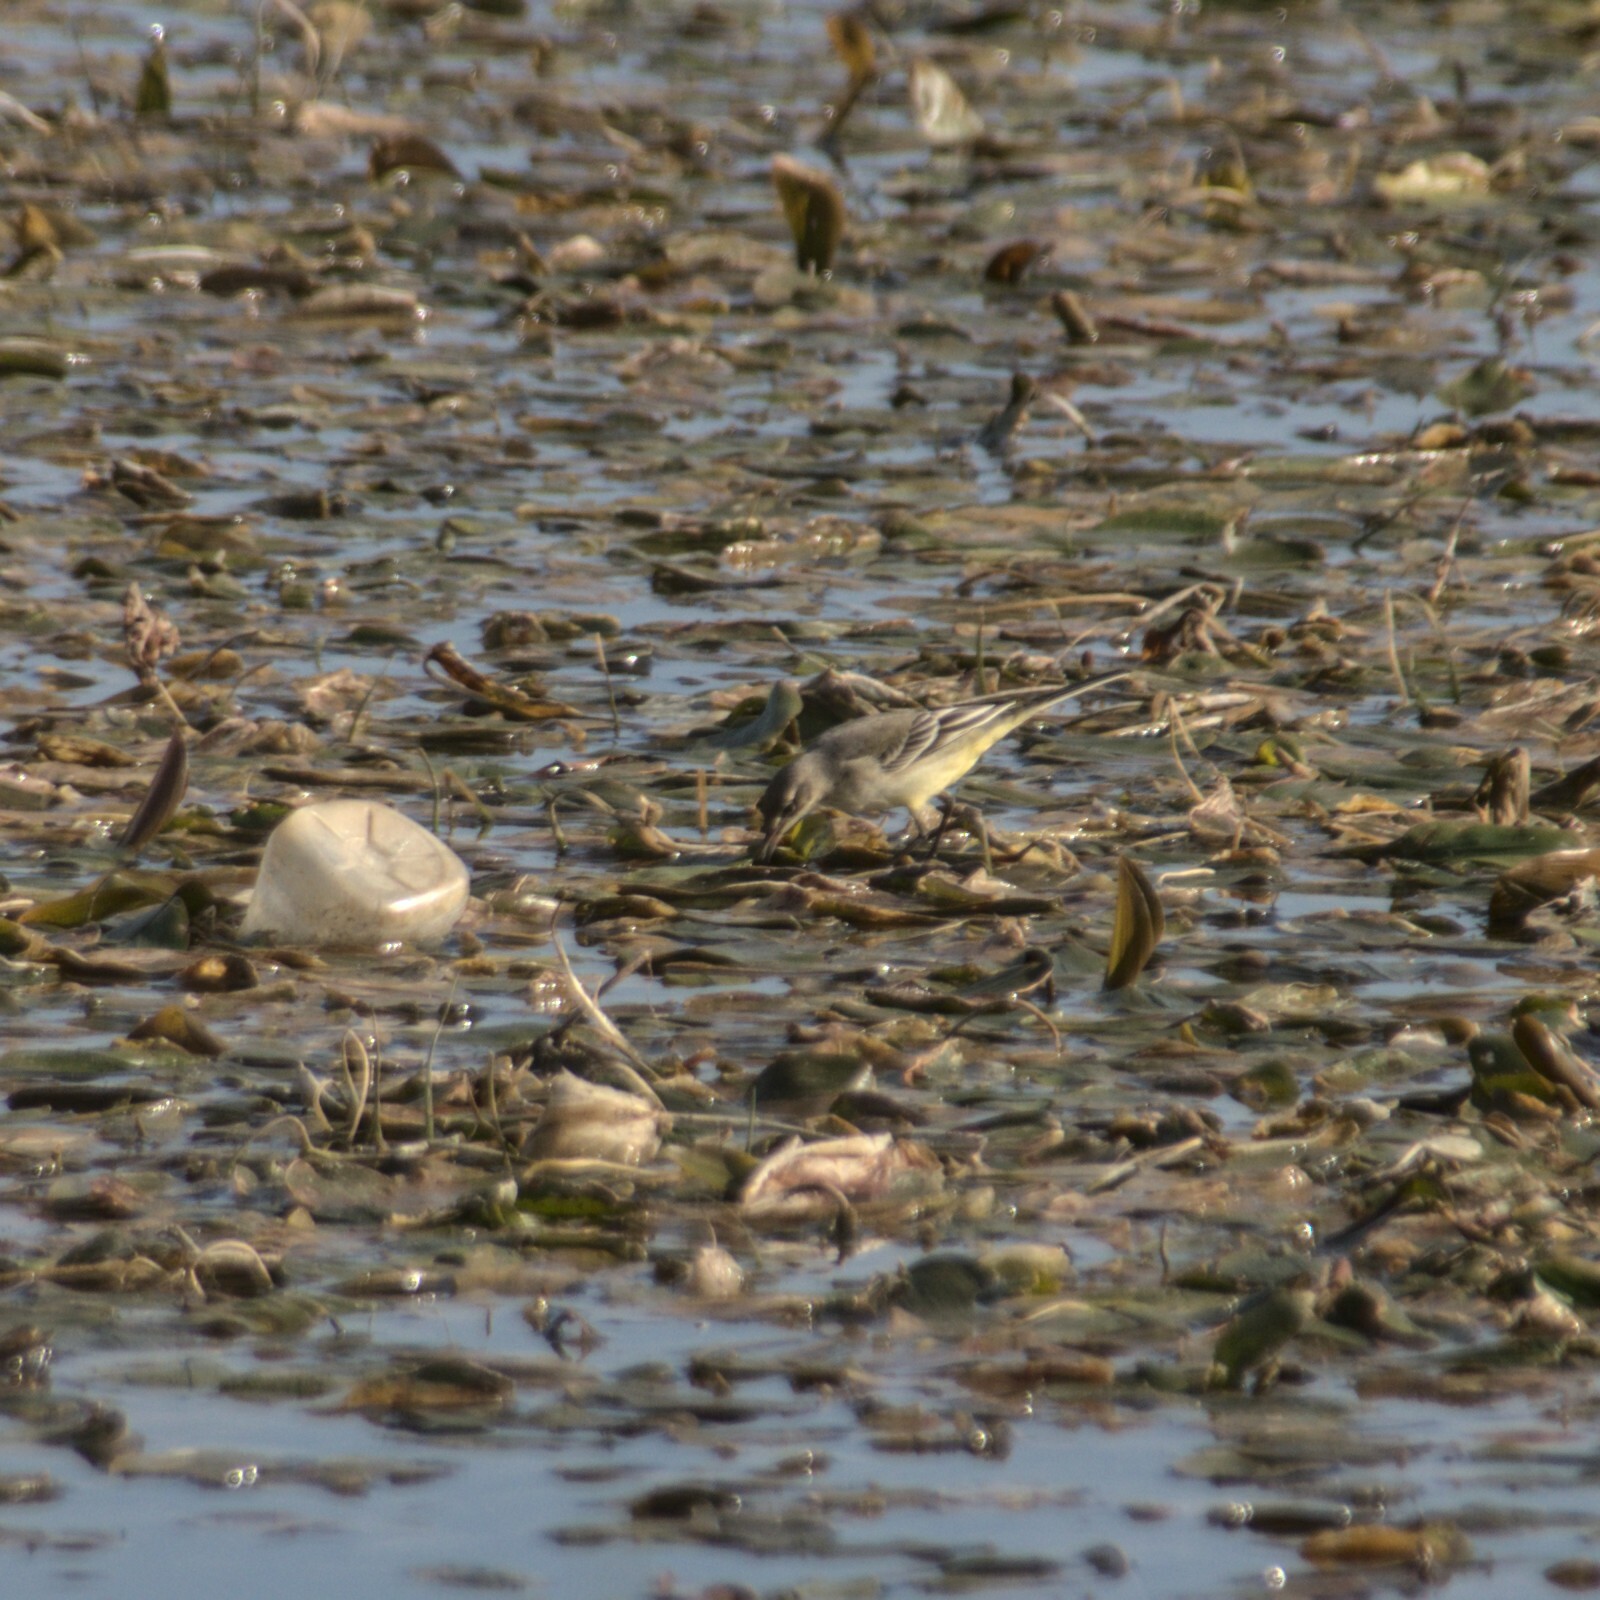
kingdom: Animalia
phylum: Chordata
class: Aves
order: Passeriformes
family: Motacillidae
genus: Motacilla
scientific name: Motacilla flava
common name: Western yellow wagtail
